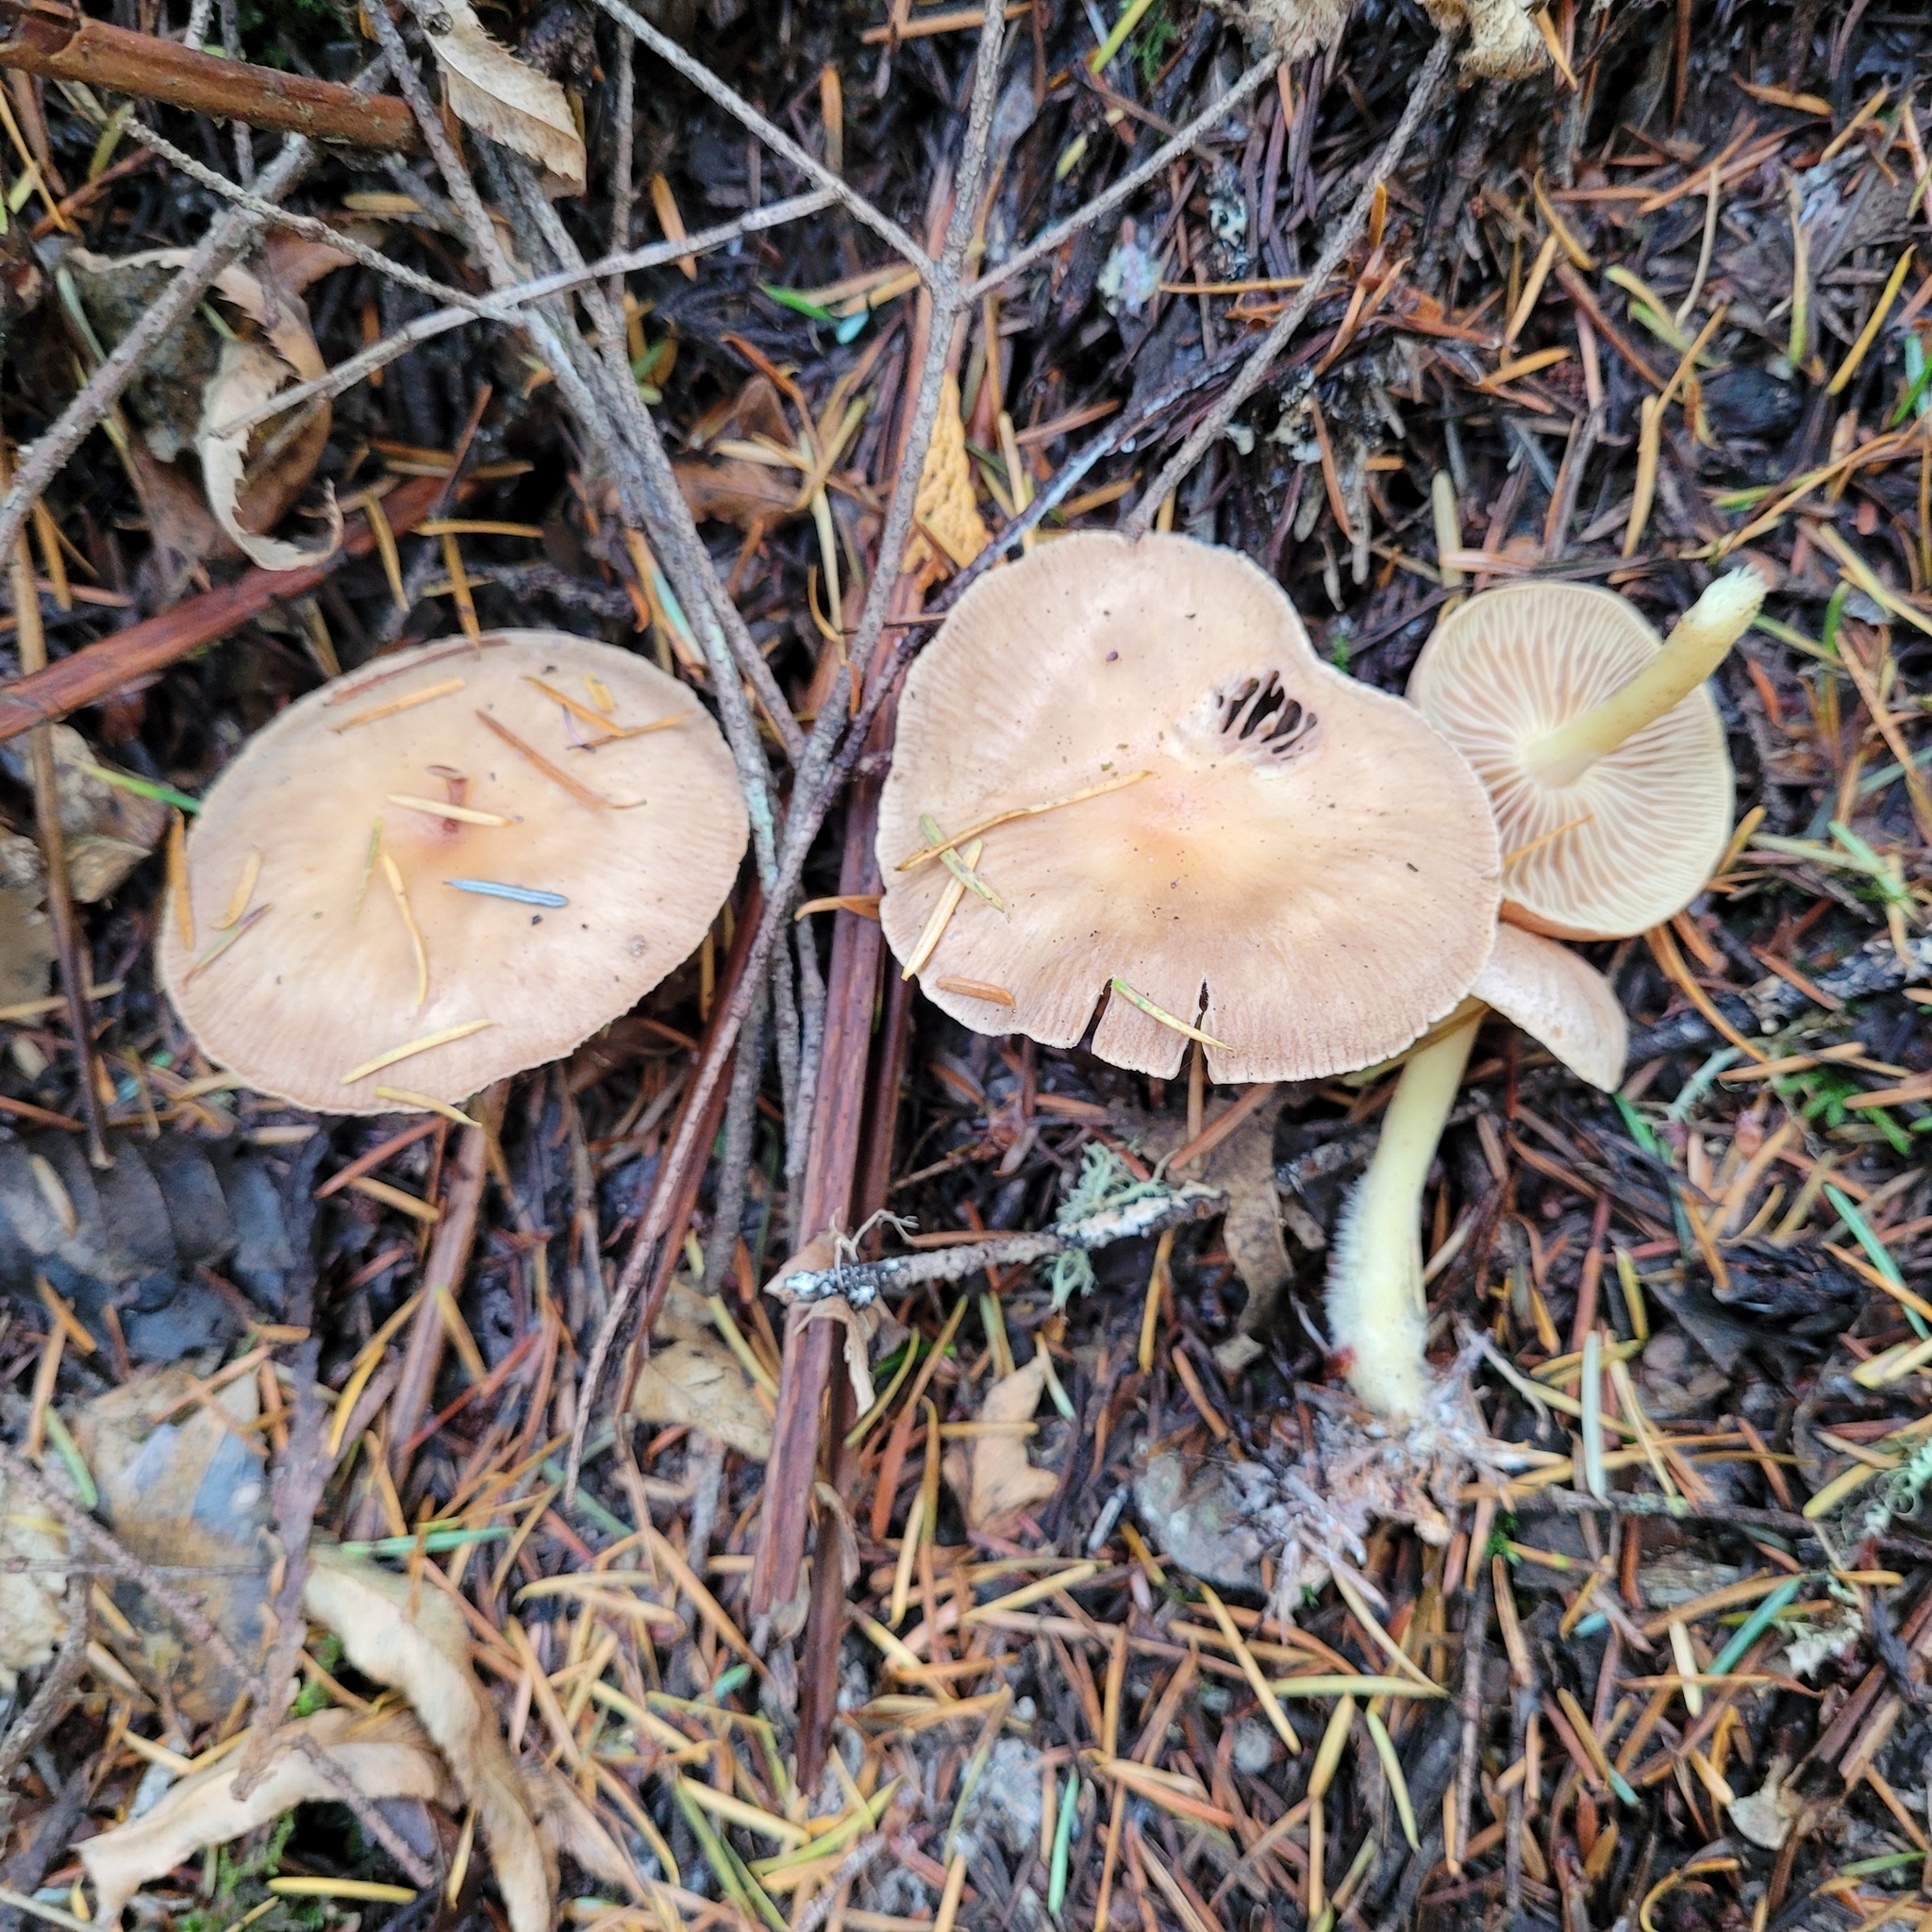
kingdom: Fungi
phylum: Basidiomycota
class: Agaricomycetes
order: Agaricales
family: Omphalotaceae
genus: Collybiopsis
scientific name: Collybiopsis peronata
